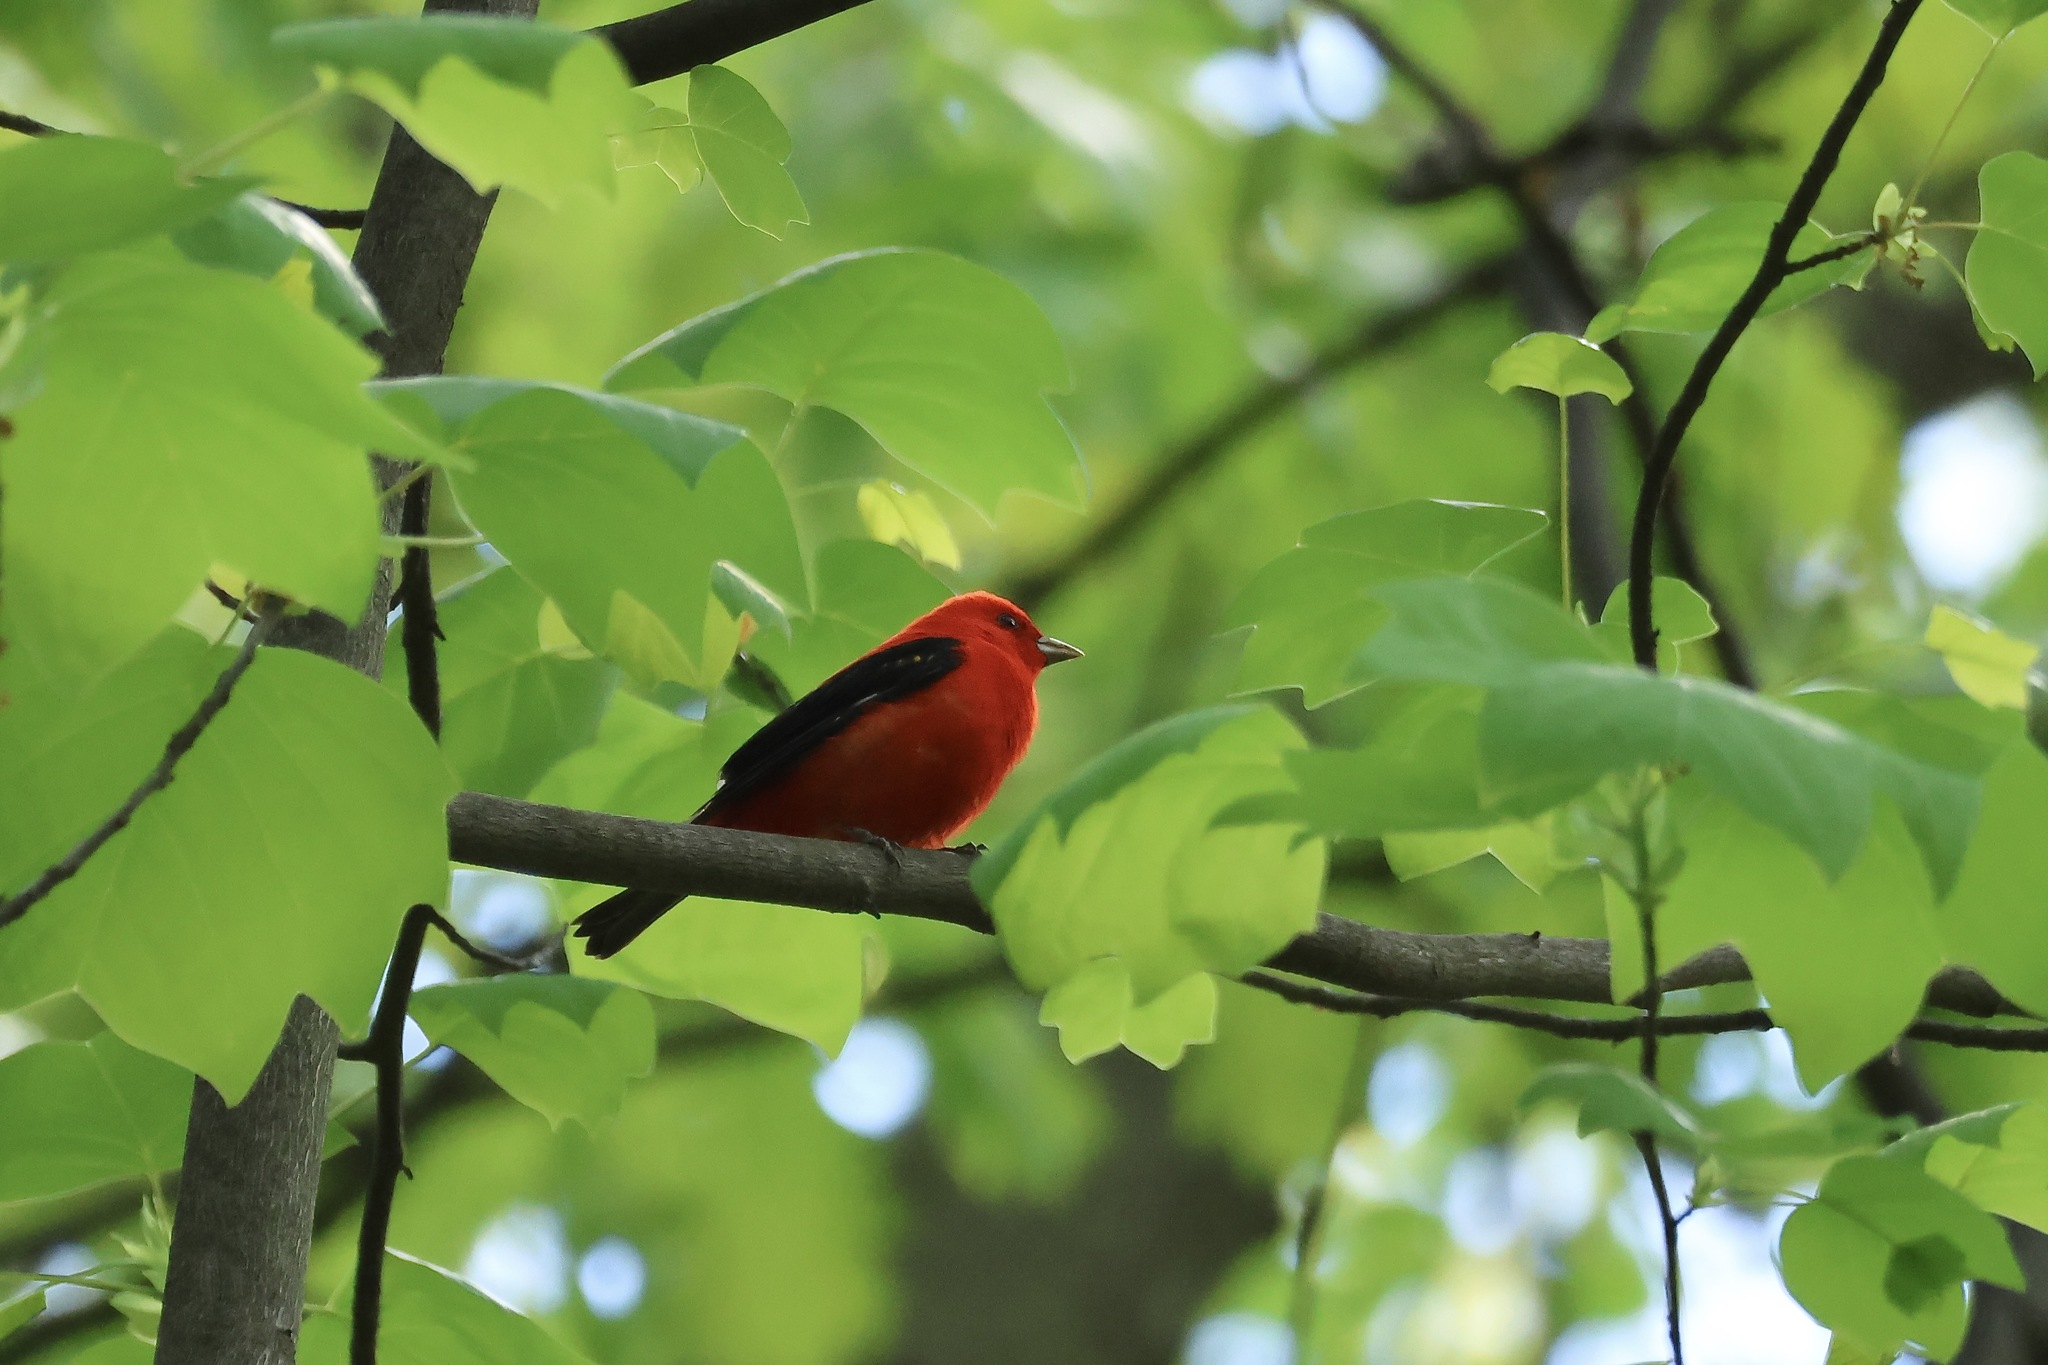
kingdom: Animalia
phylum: Chordata
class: Aves
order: Passeriformes
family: Cardinalidae
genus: Piranga
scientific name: Piranga olivacea
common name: Scarlet tanager
